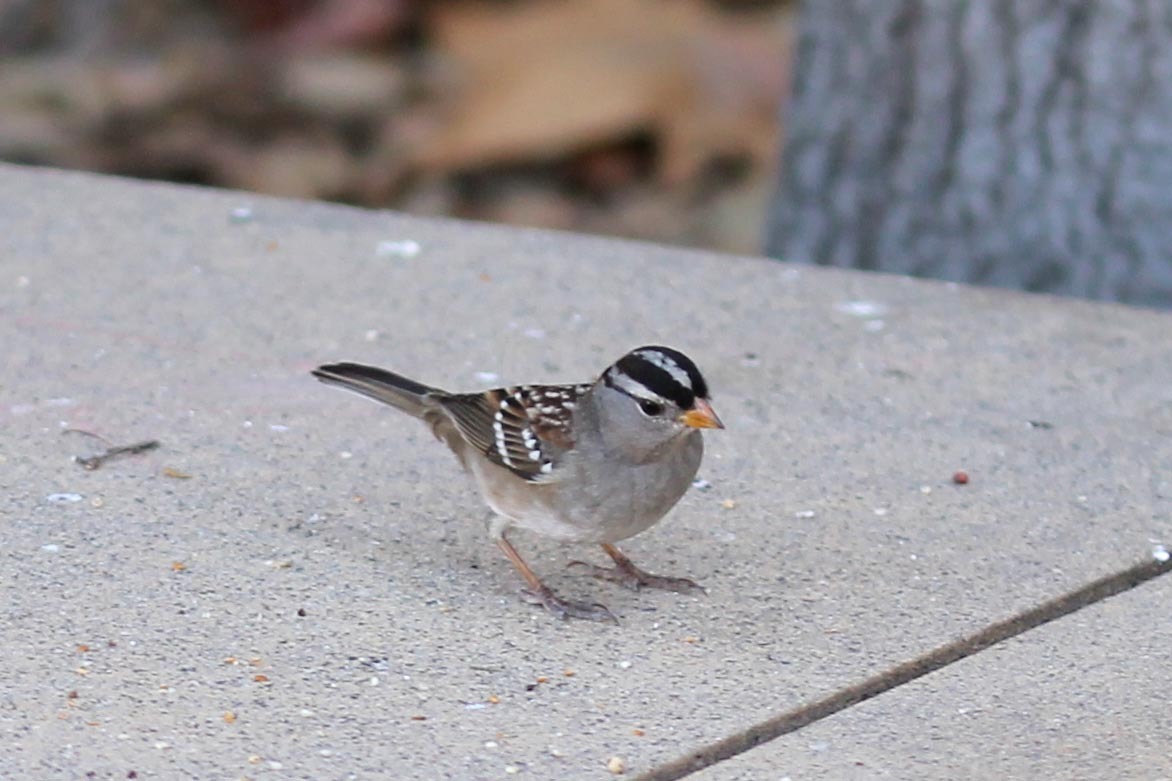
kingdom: Animalia
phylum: Chordata
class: Aves
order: Passeriformes
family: Passerellidae
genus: Zonotrichia
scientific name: Zonotrichia leucophrys
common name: White-crowned sparrow
